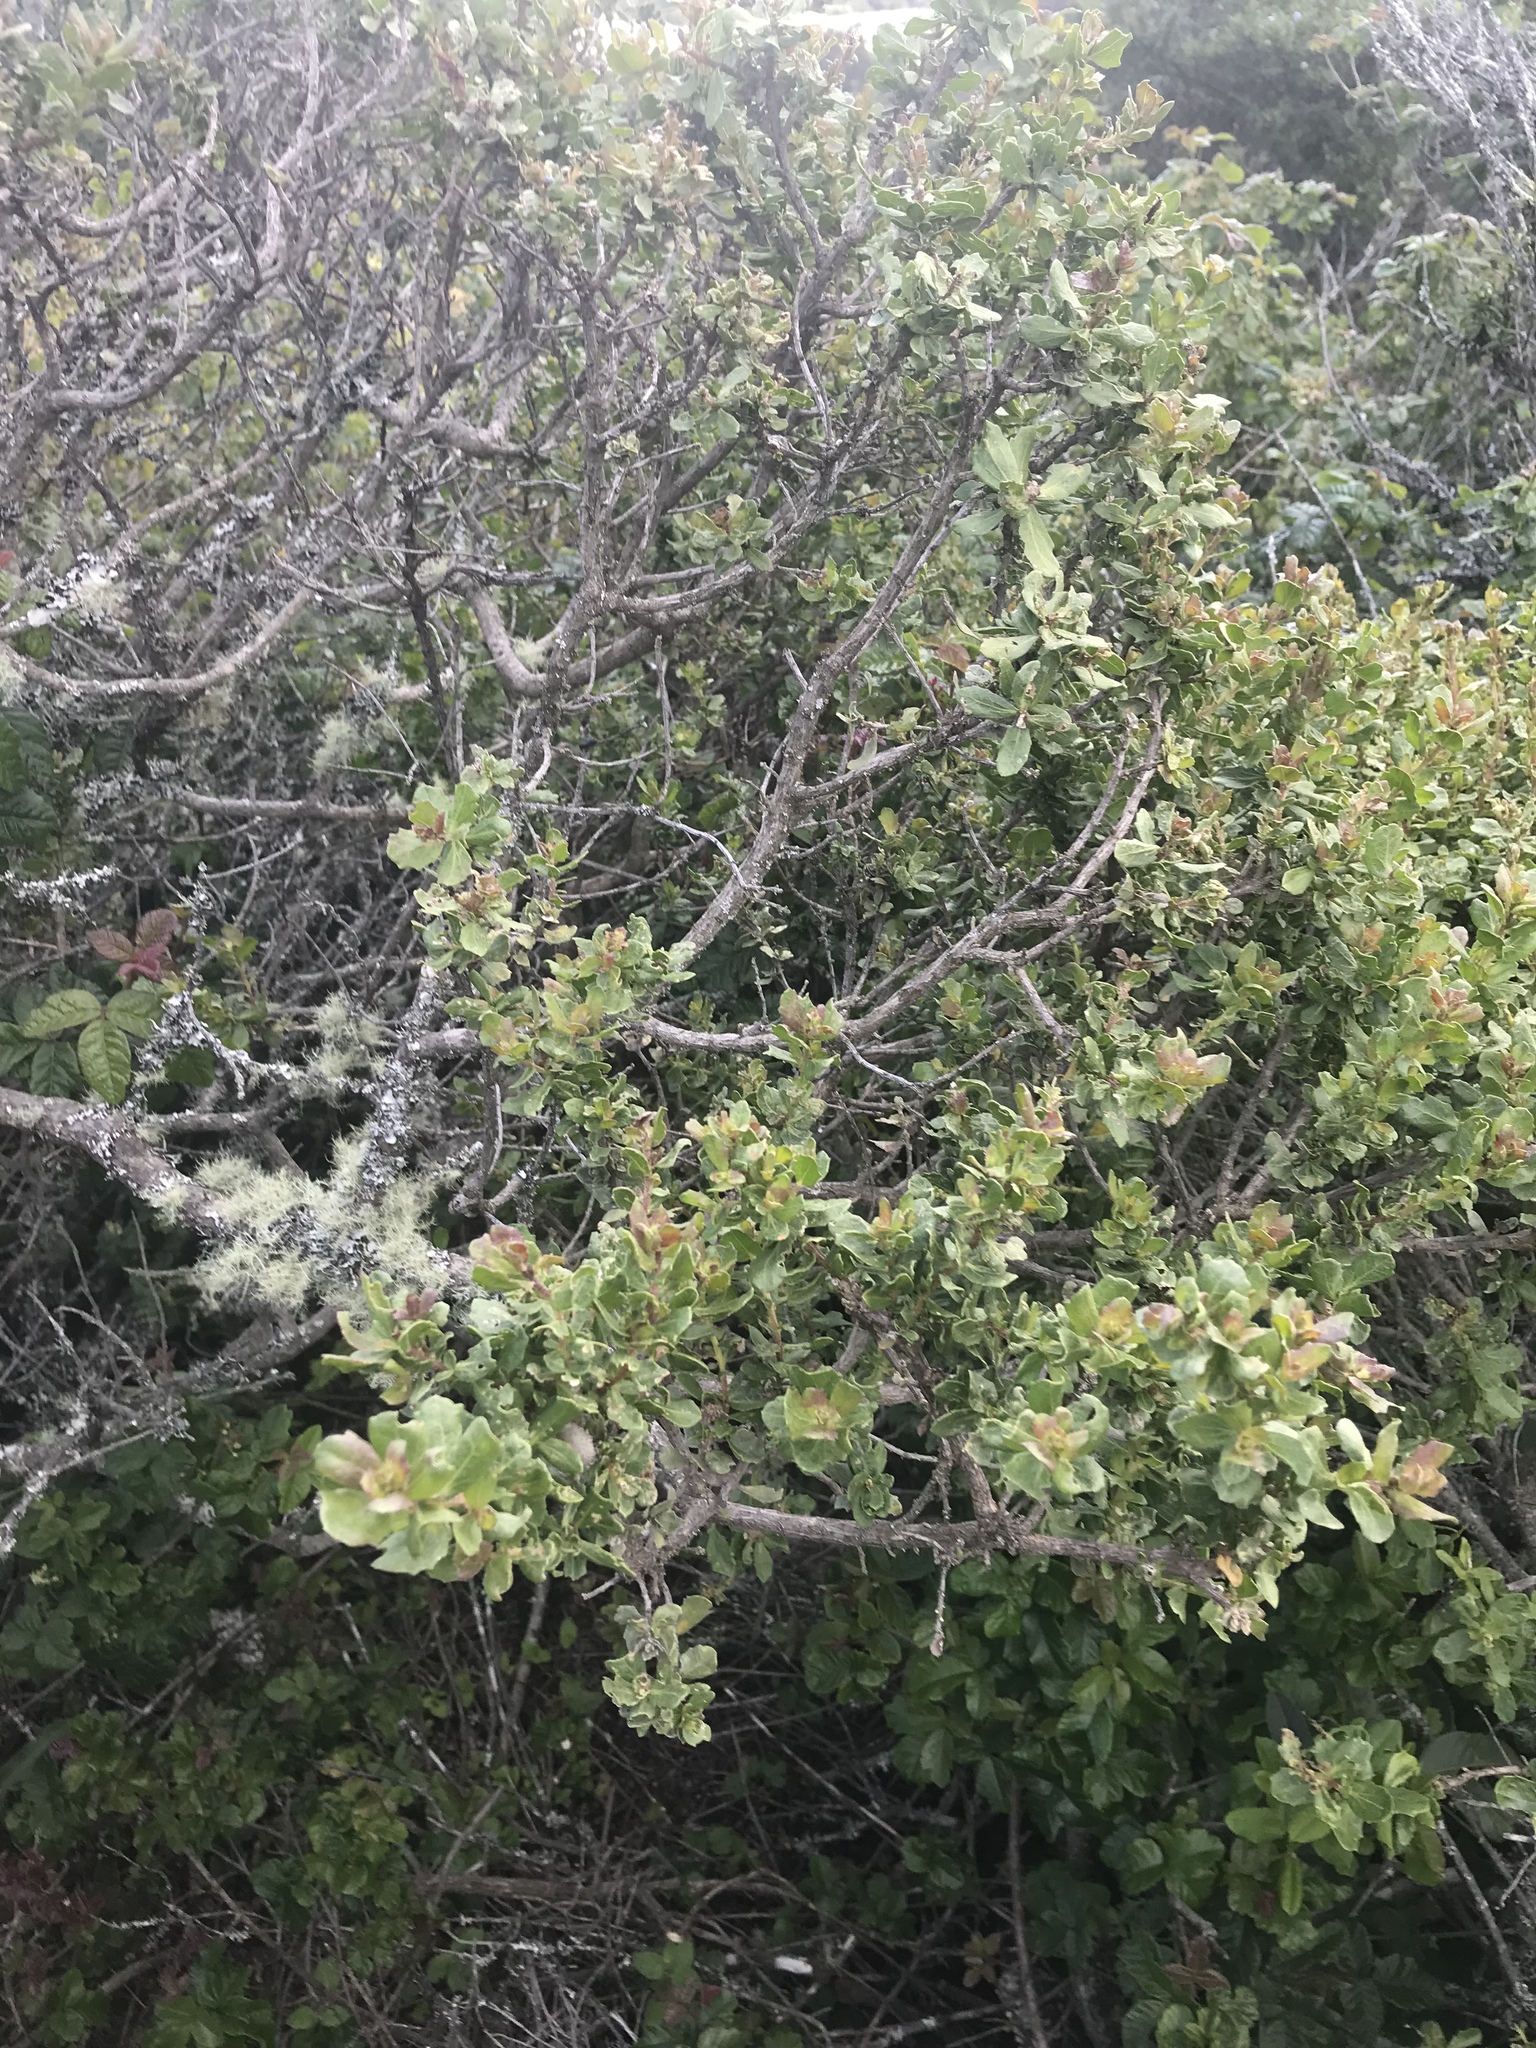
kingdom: Plantae
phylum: Tracheophyta
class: Magnoliopsida
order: Asterales
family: Asteraceae
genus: Baccharis
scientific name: Baccharis pilularis
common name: Coyotebrush
